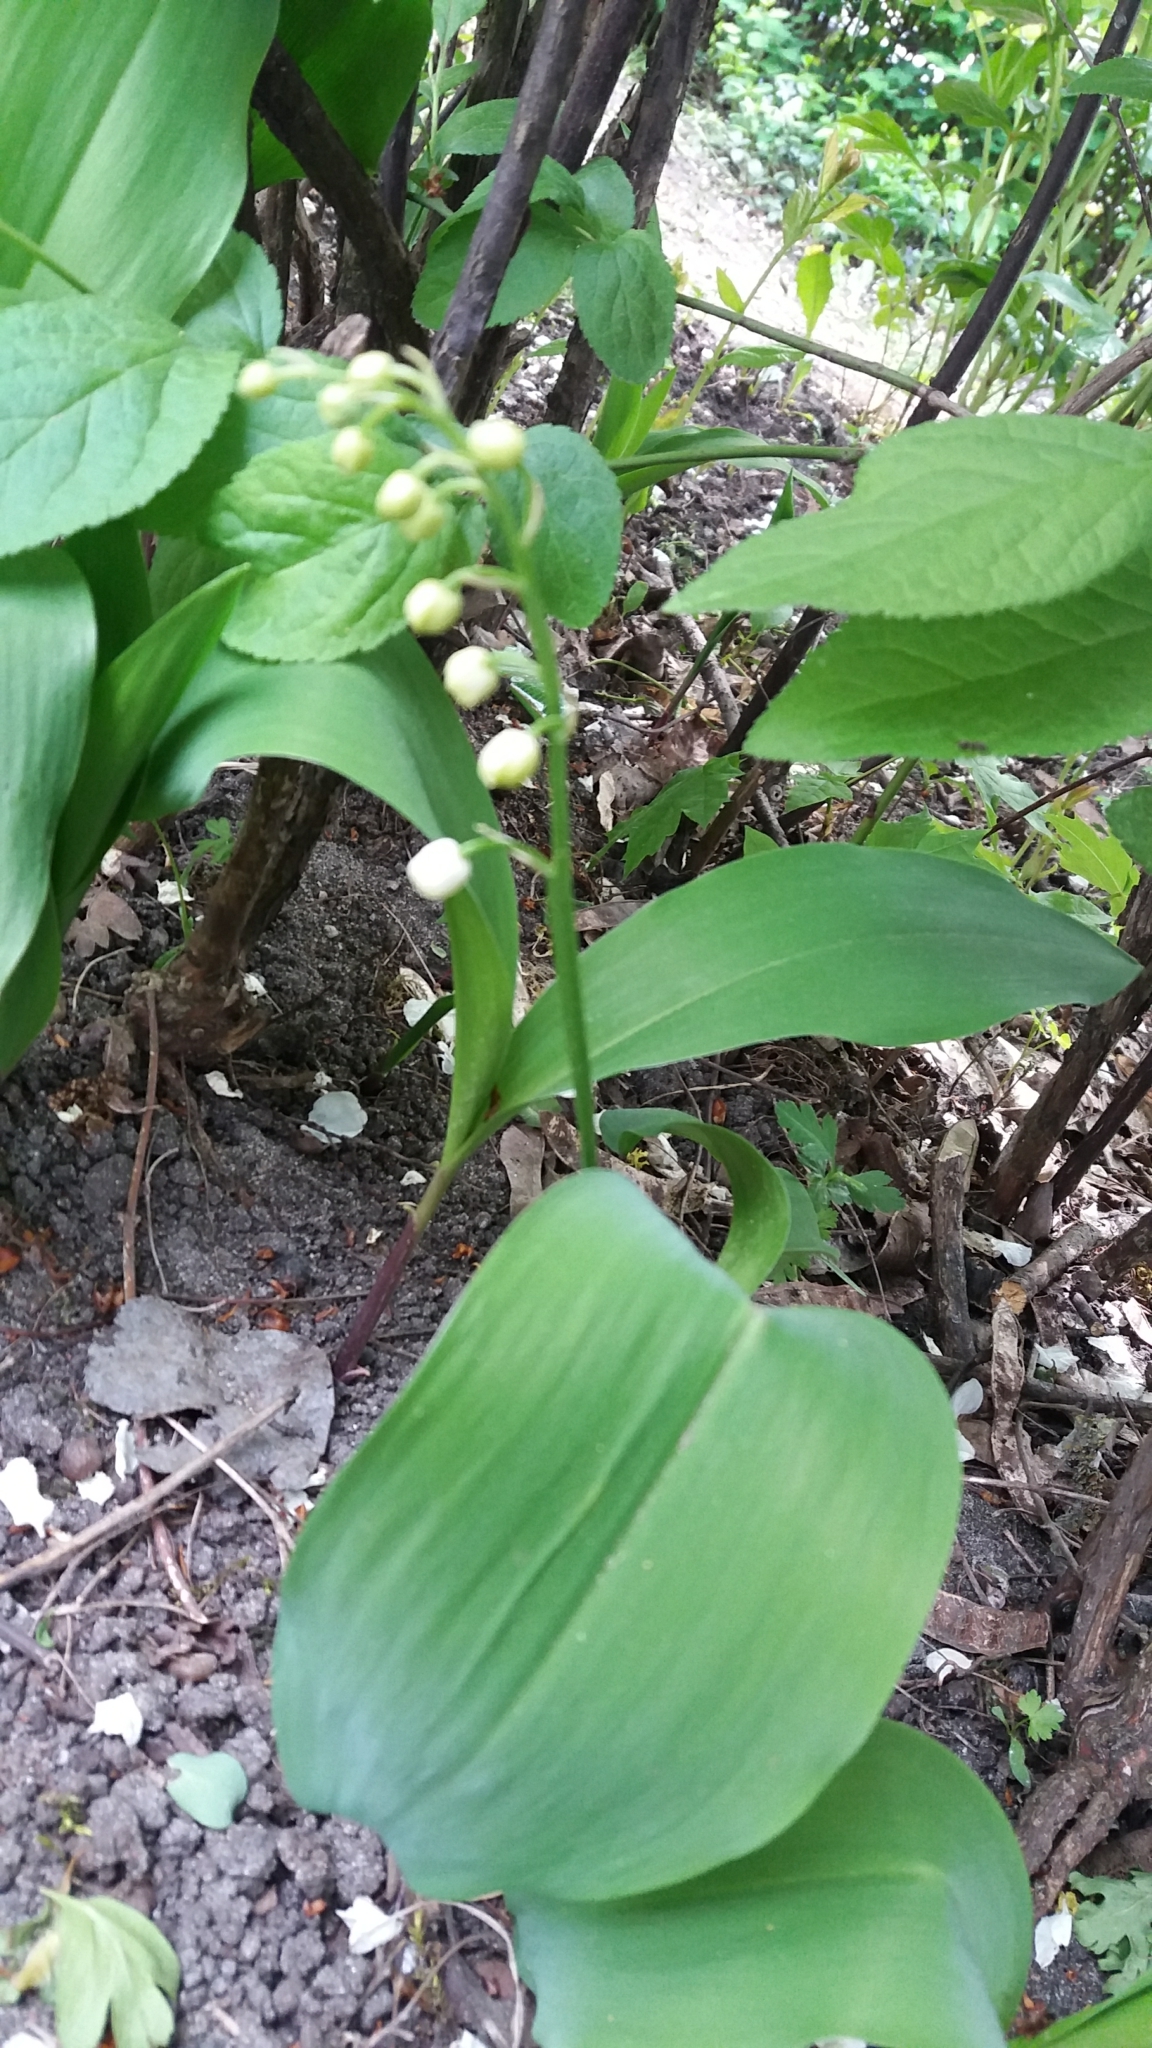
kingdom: Plantae
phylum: Tracheophyta
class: Liliopsida
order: Asparagales
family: Asparagaceae
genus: Convallaria
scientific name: Convallaria majalis
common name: Lily-of-the-valley
